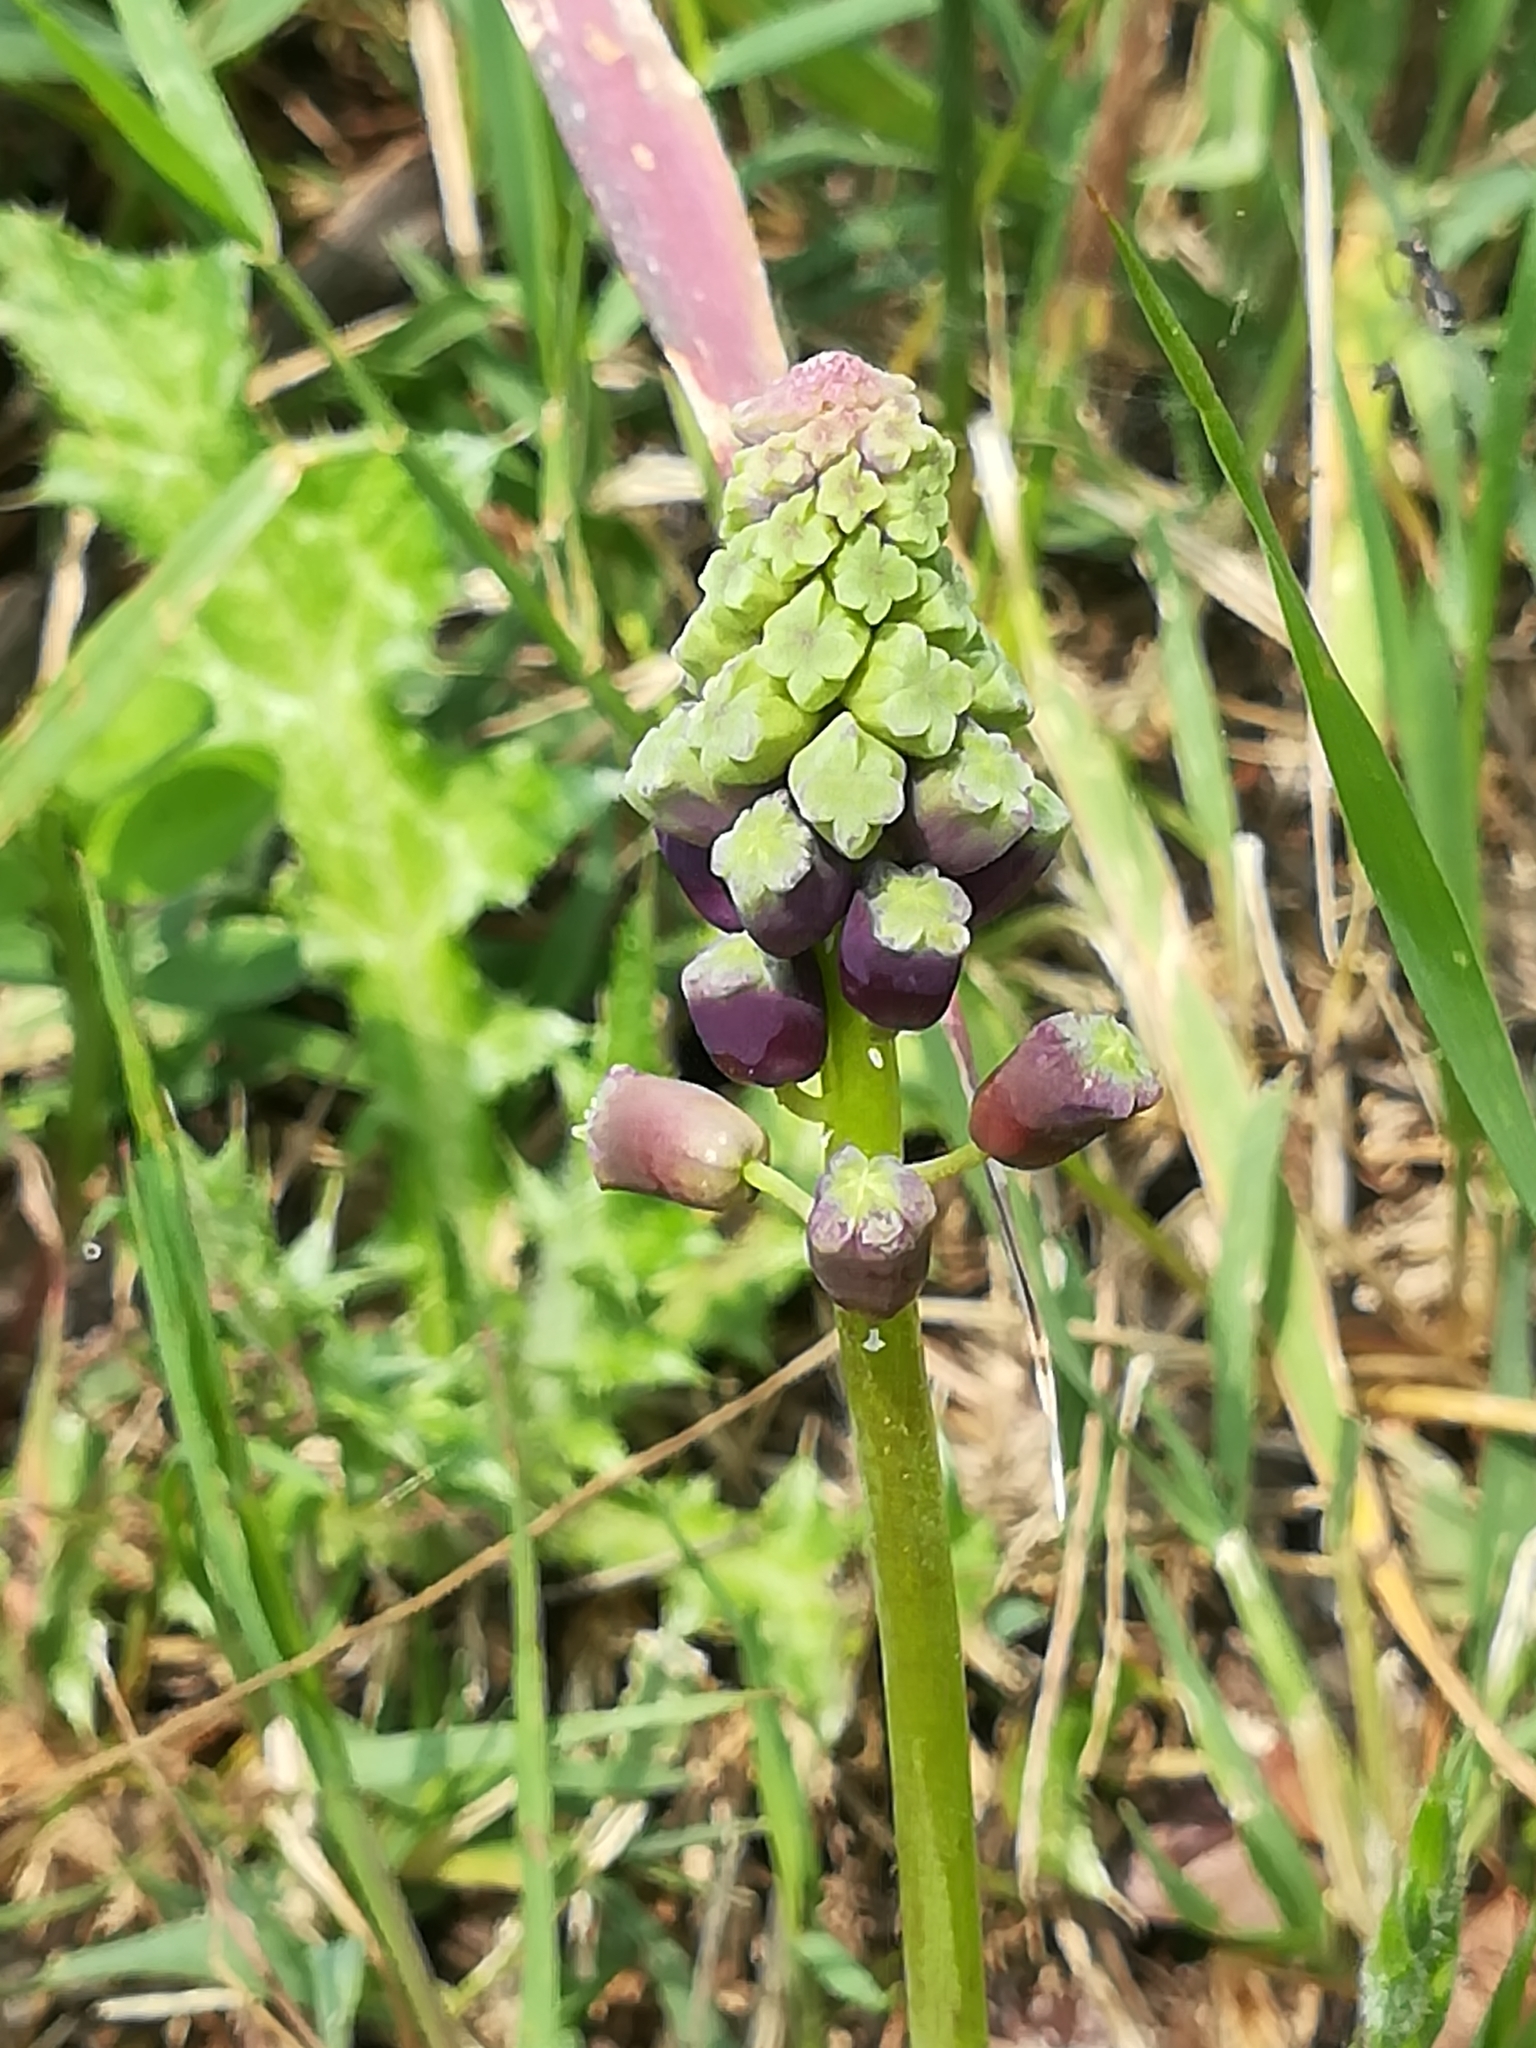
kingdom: Plantae
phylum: Tracheophyta
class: Liliopsida
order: Asparagales
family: Asparagaceae
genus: Muscari
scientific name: Muscari comosum
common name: Tassel hyacinth
